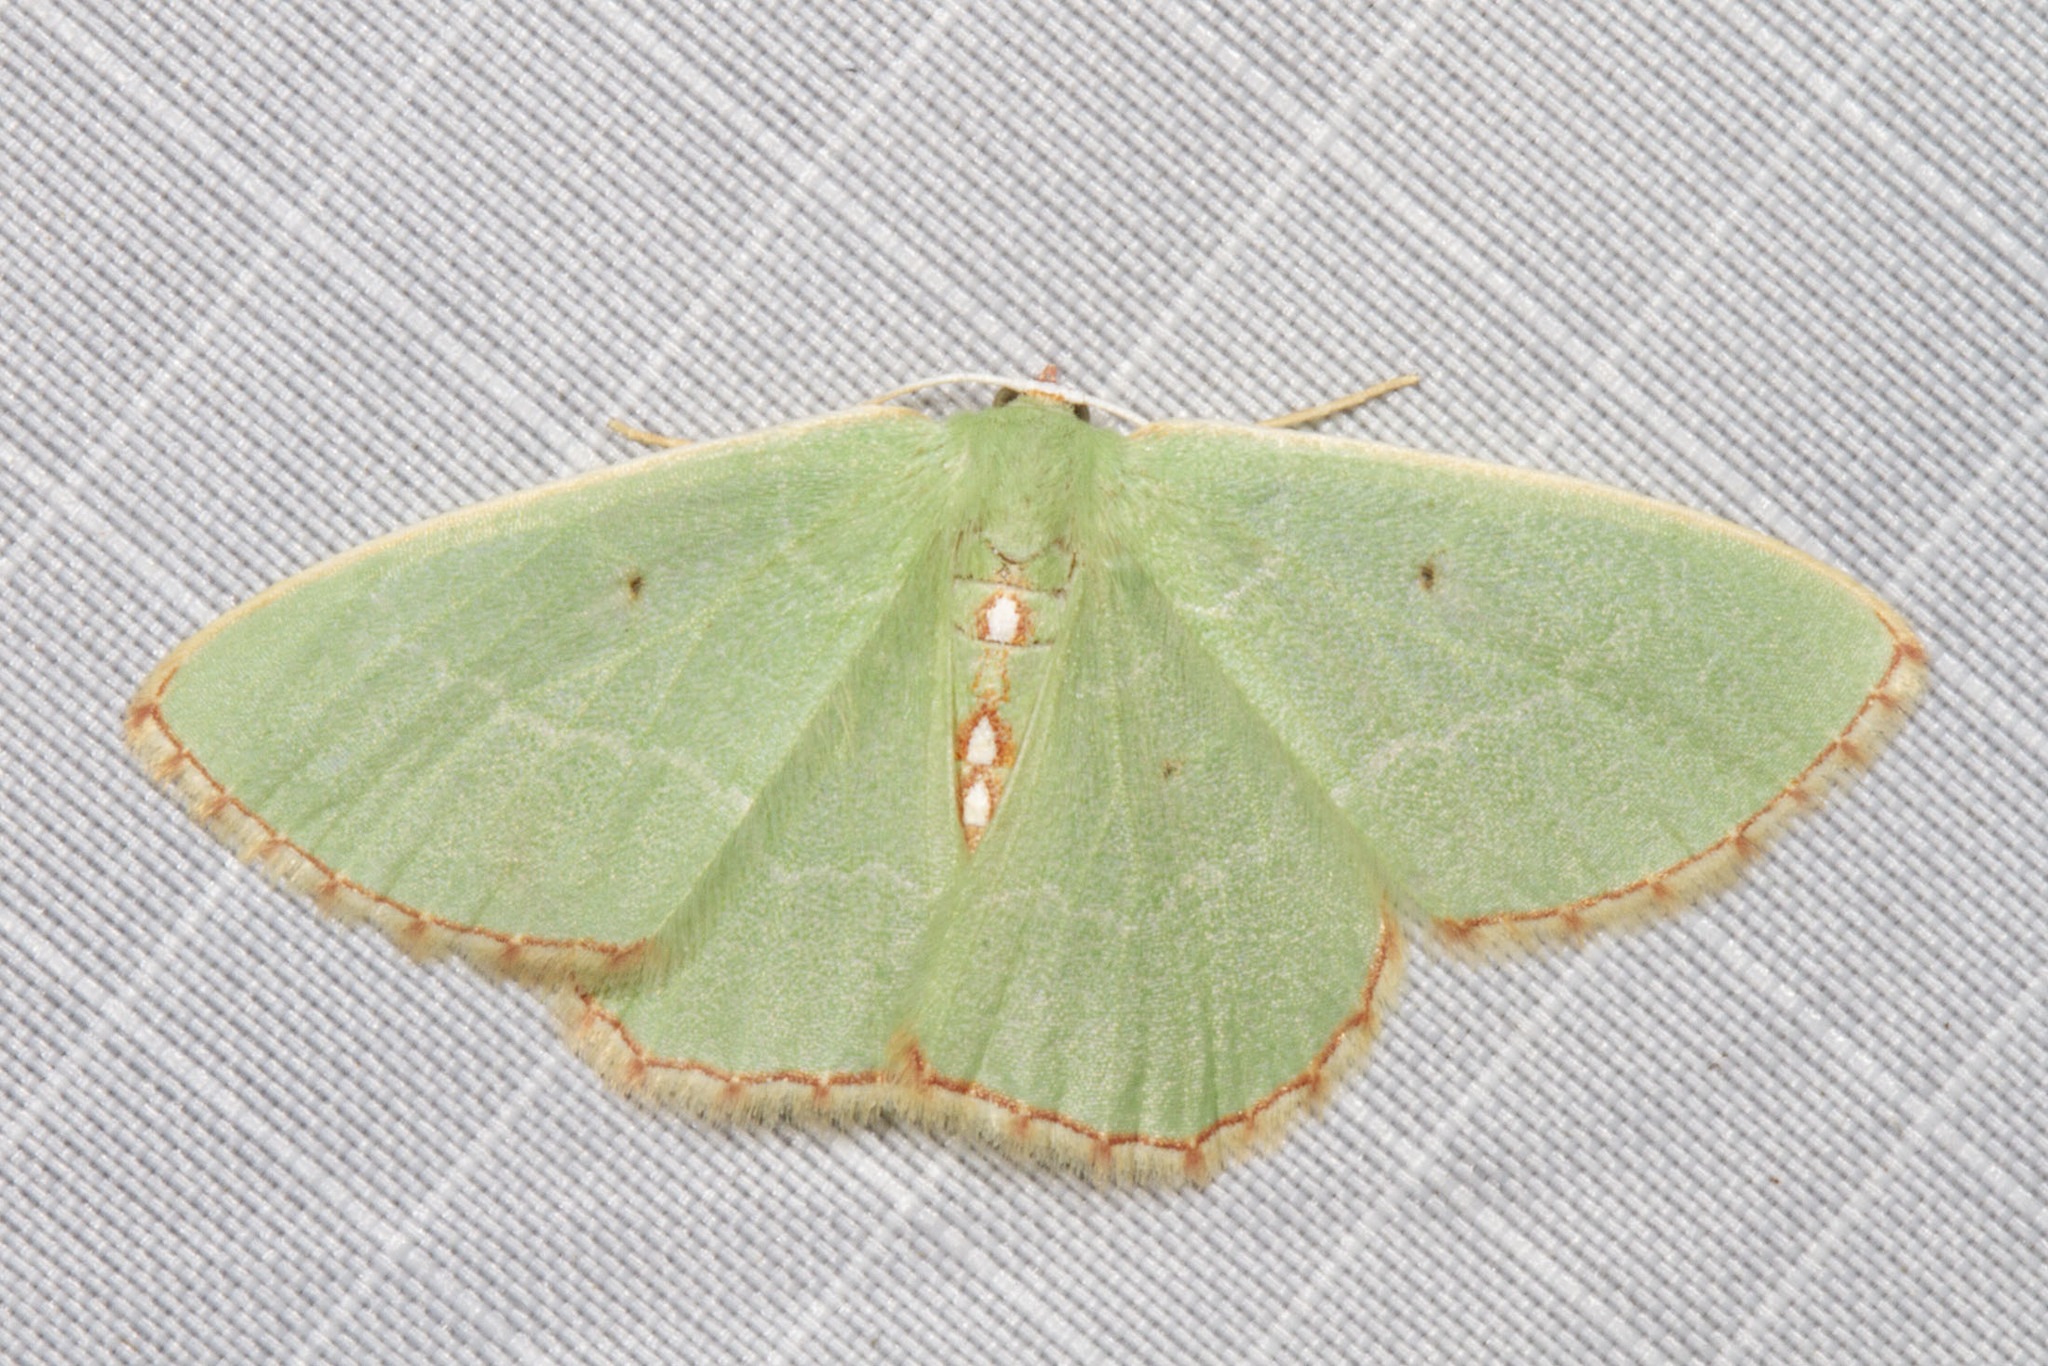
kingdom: Animalia
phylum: Arthropoda
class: Insecta
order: Lepidoptera
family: Geometridae
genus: Nemoria
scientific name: Nemoria lixaria
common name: Red-bordered emerald
